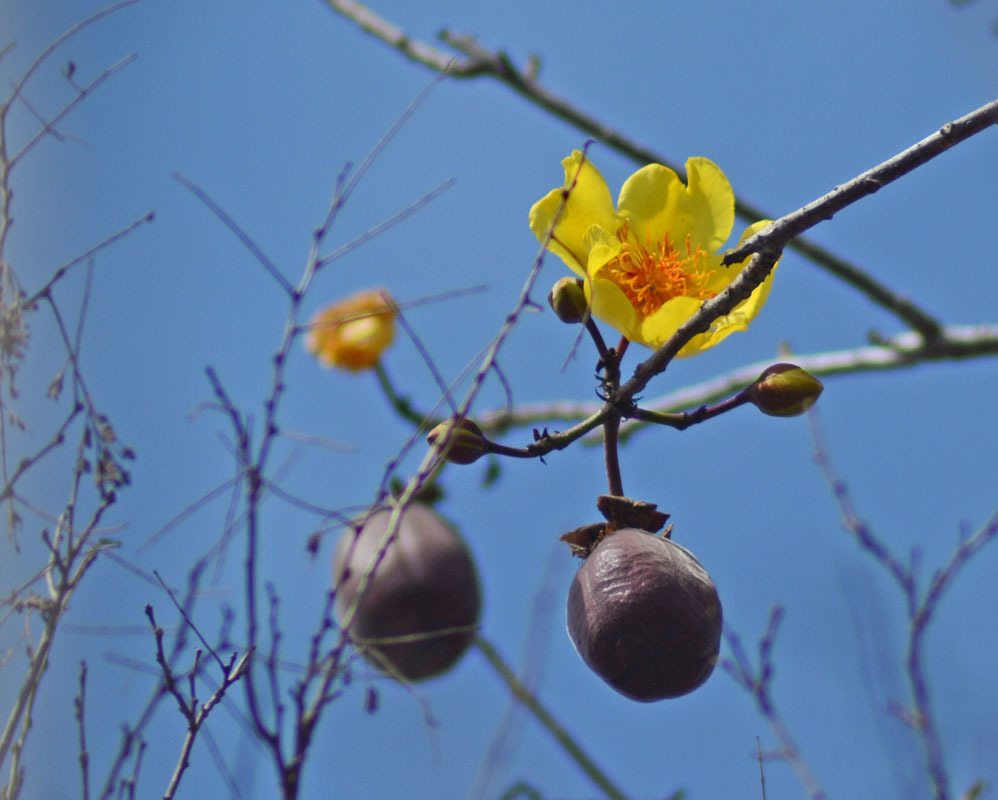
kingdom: Plantae
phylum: Tracheophyta
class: Magnoliopsida
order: Malvales
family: Cochlospermaceae
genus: Cochlospermum
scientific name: Cochlospermum vitifolium
